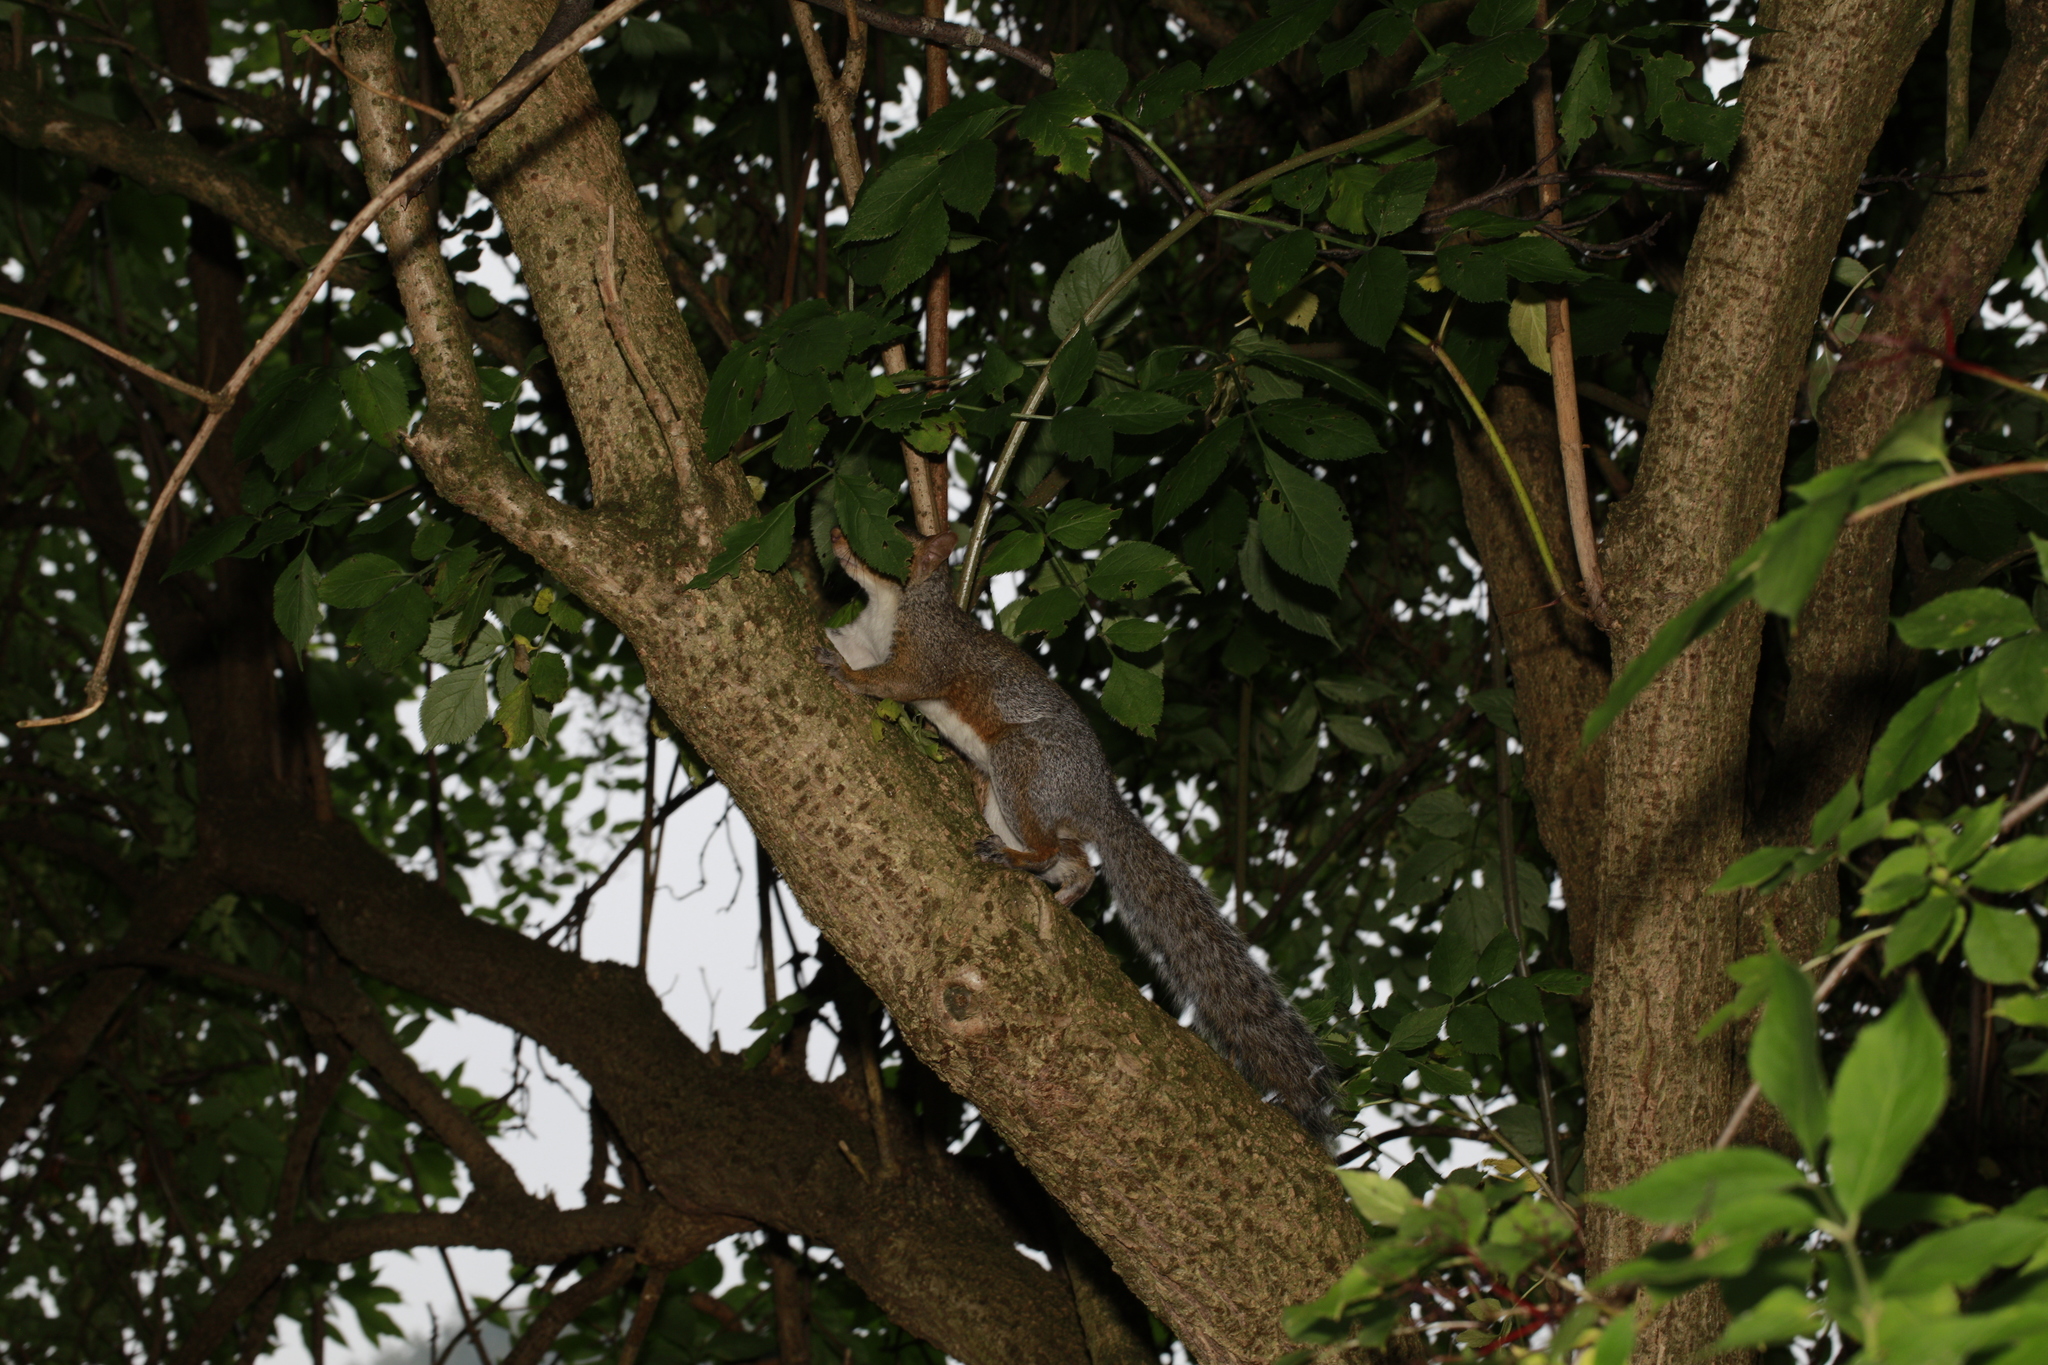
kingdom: Animalia
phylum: Chordata
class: Mammalia
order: Rodentia
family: Sciuridae
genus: Sciurus
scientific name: Sciurus carolinensis
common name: Eastern gray squirrel
